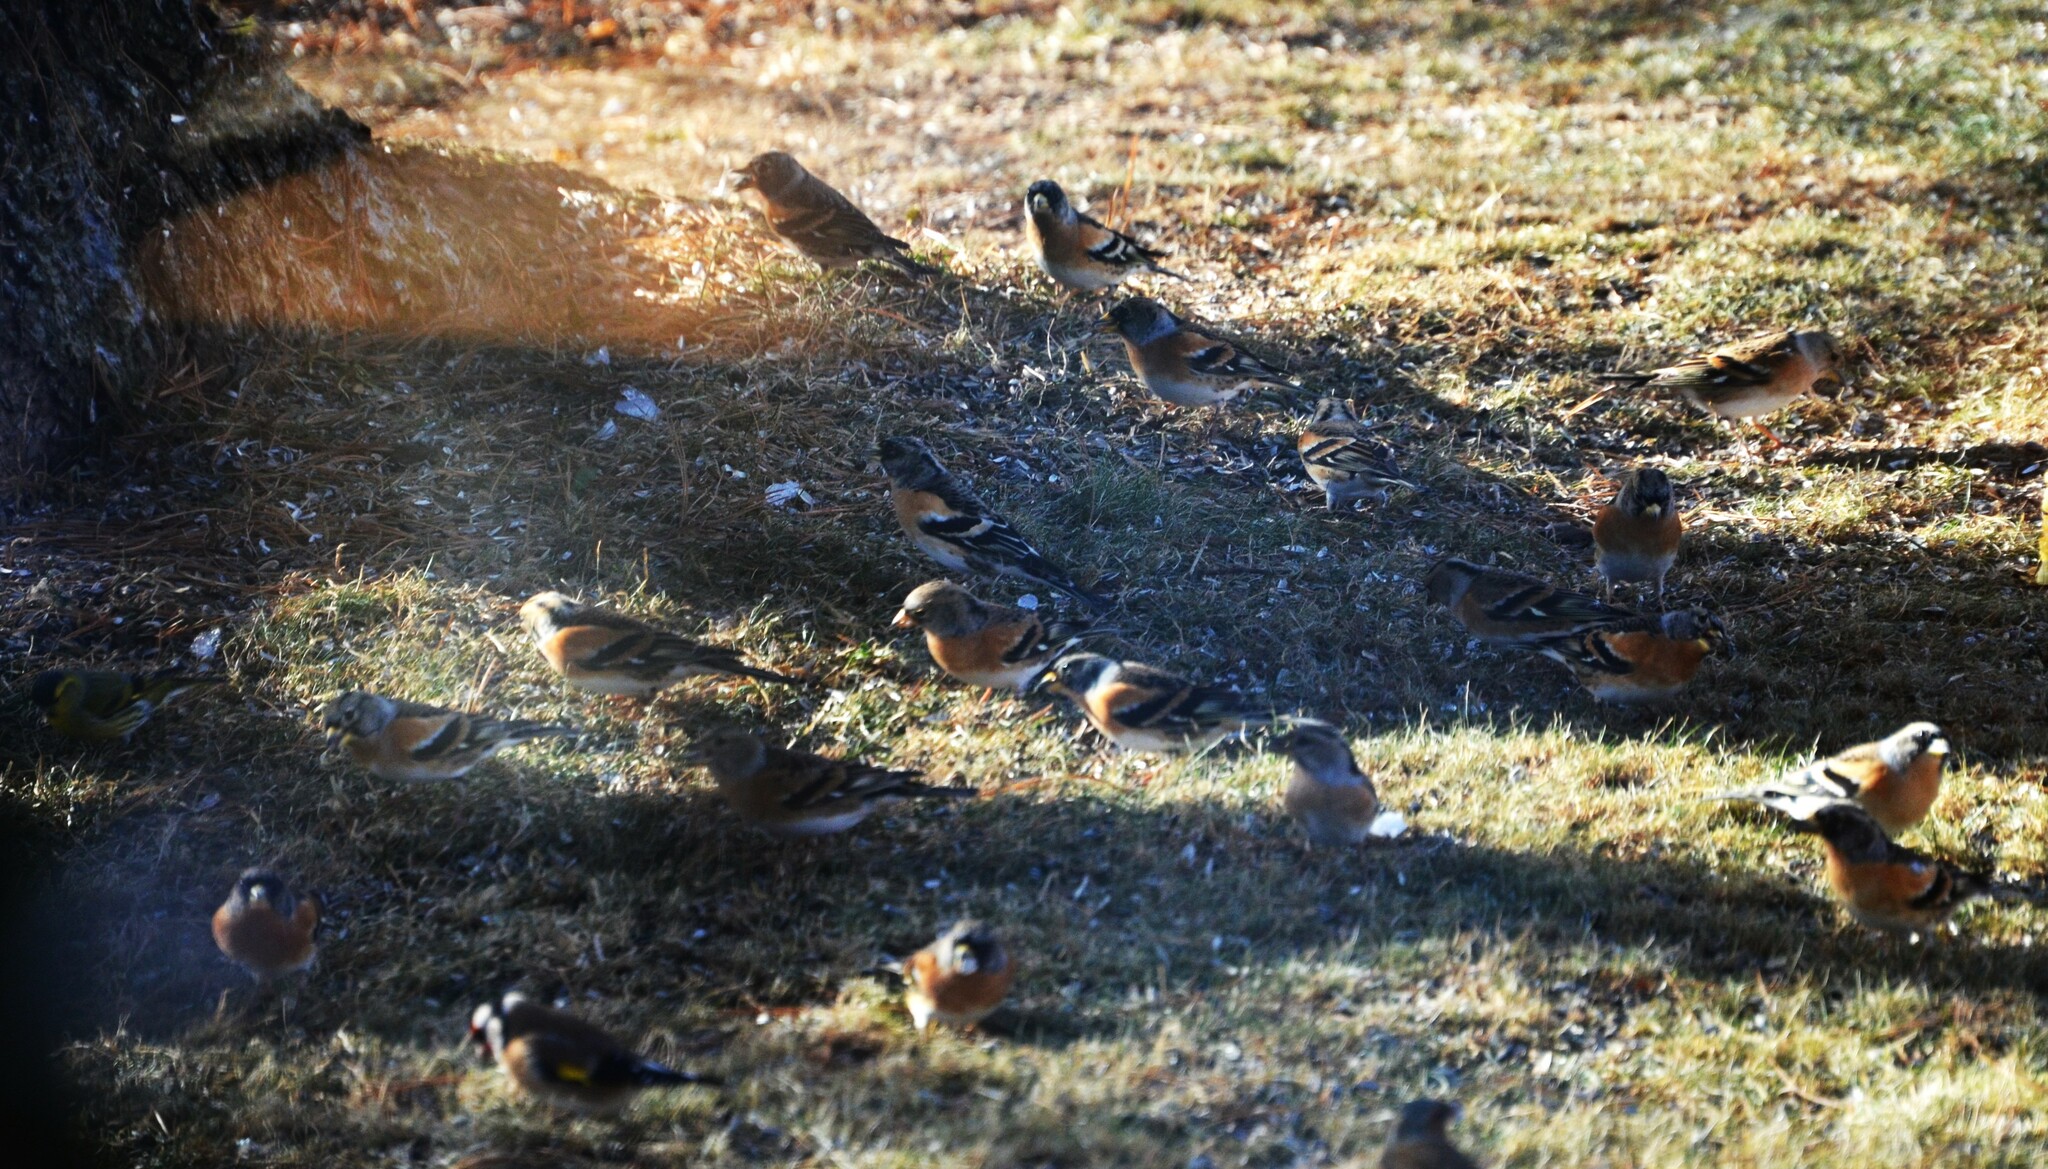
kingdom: Animalia
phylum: Chordata
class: Aves
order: Passeriformes
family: Fringillidae
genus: Fringilla
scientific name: Fringilla montifringilla
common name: Brambling
